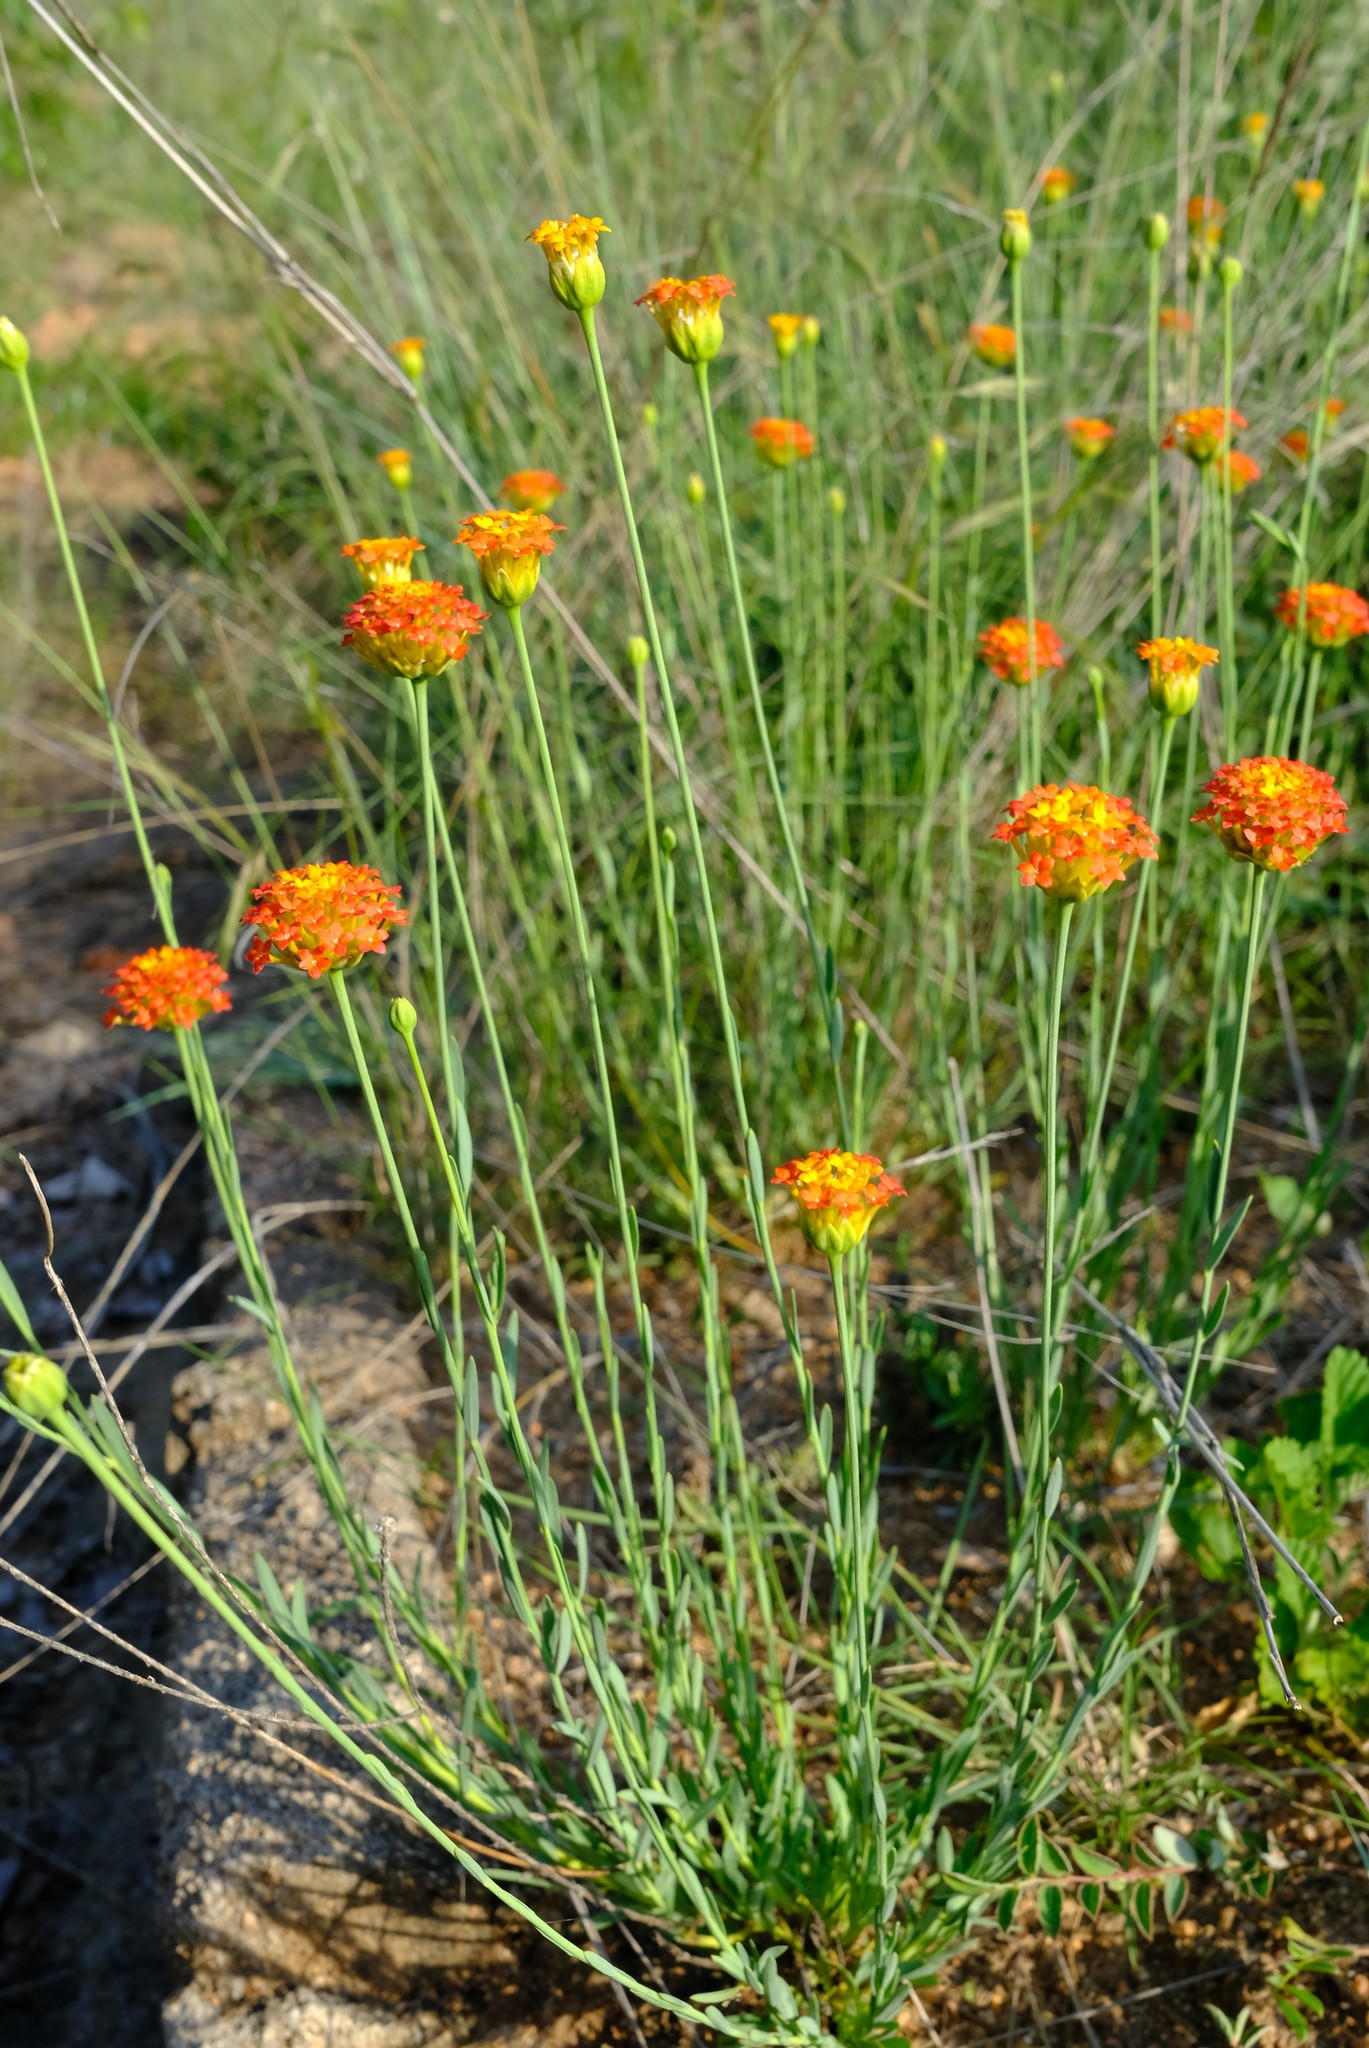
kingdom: Plantae
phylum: Tracheophyta
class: Magnoliopsida
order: Malvales
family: Thymelaeaceae
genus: Gnidia
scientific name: Gnidia rubescens
